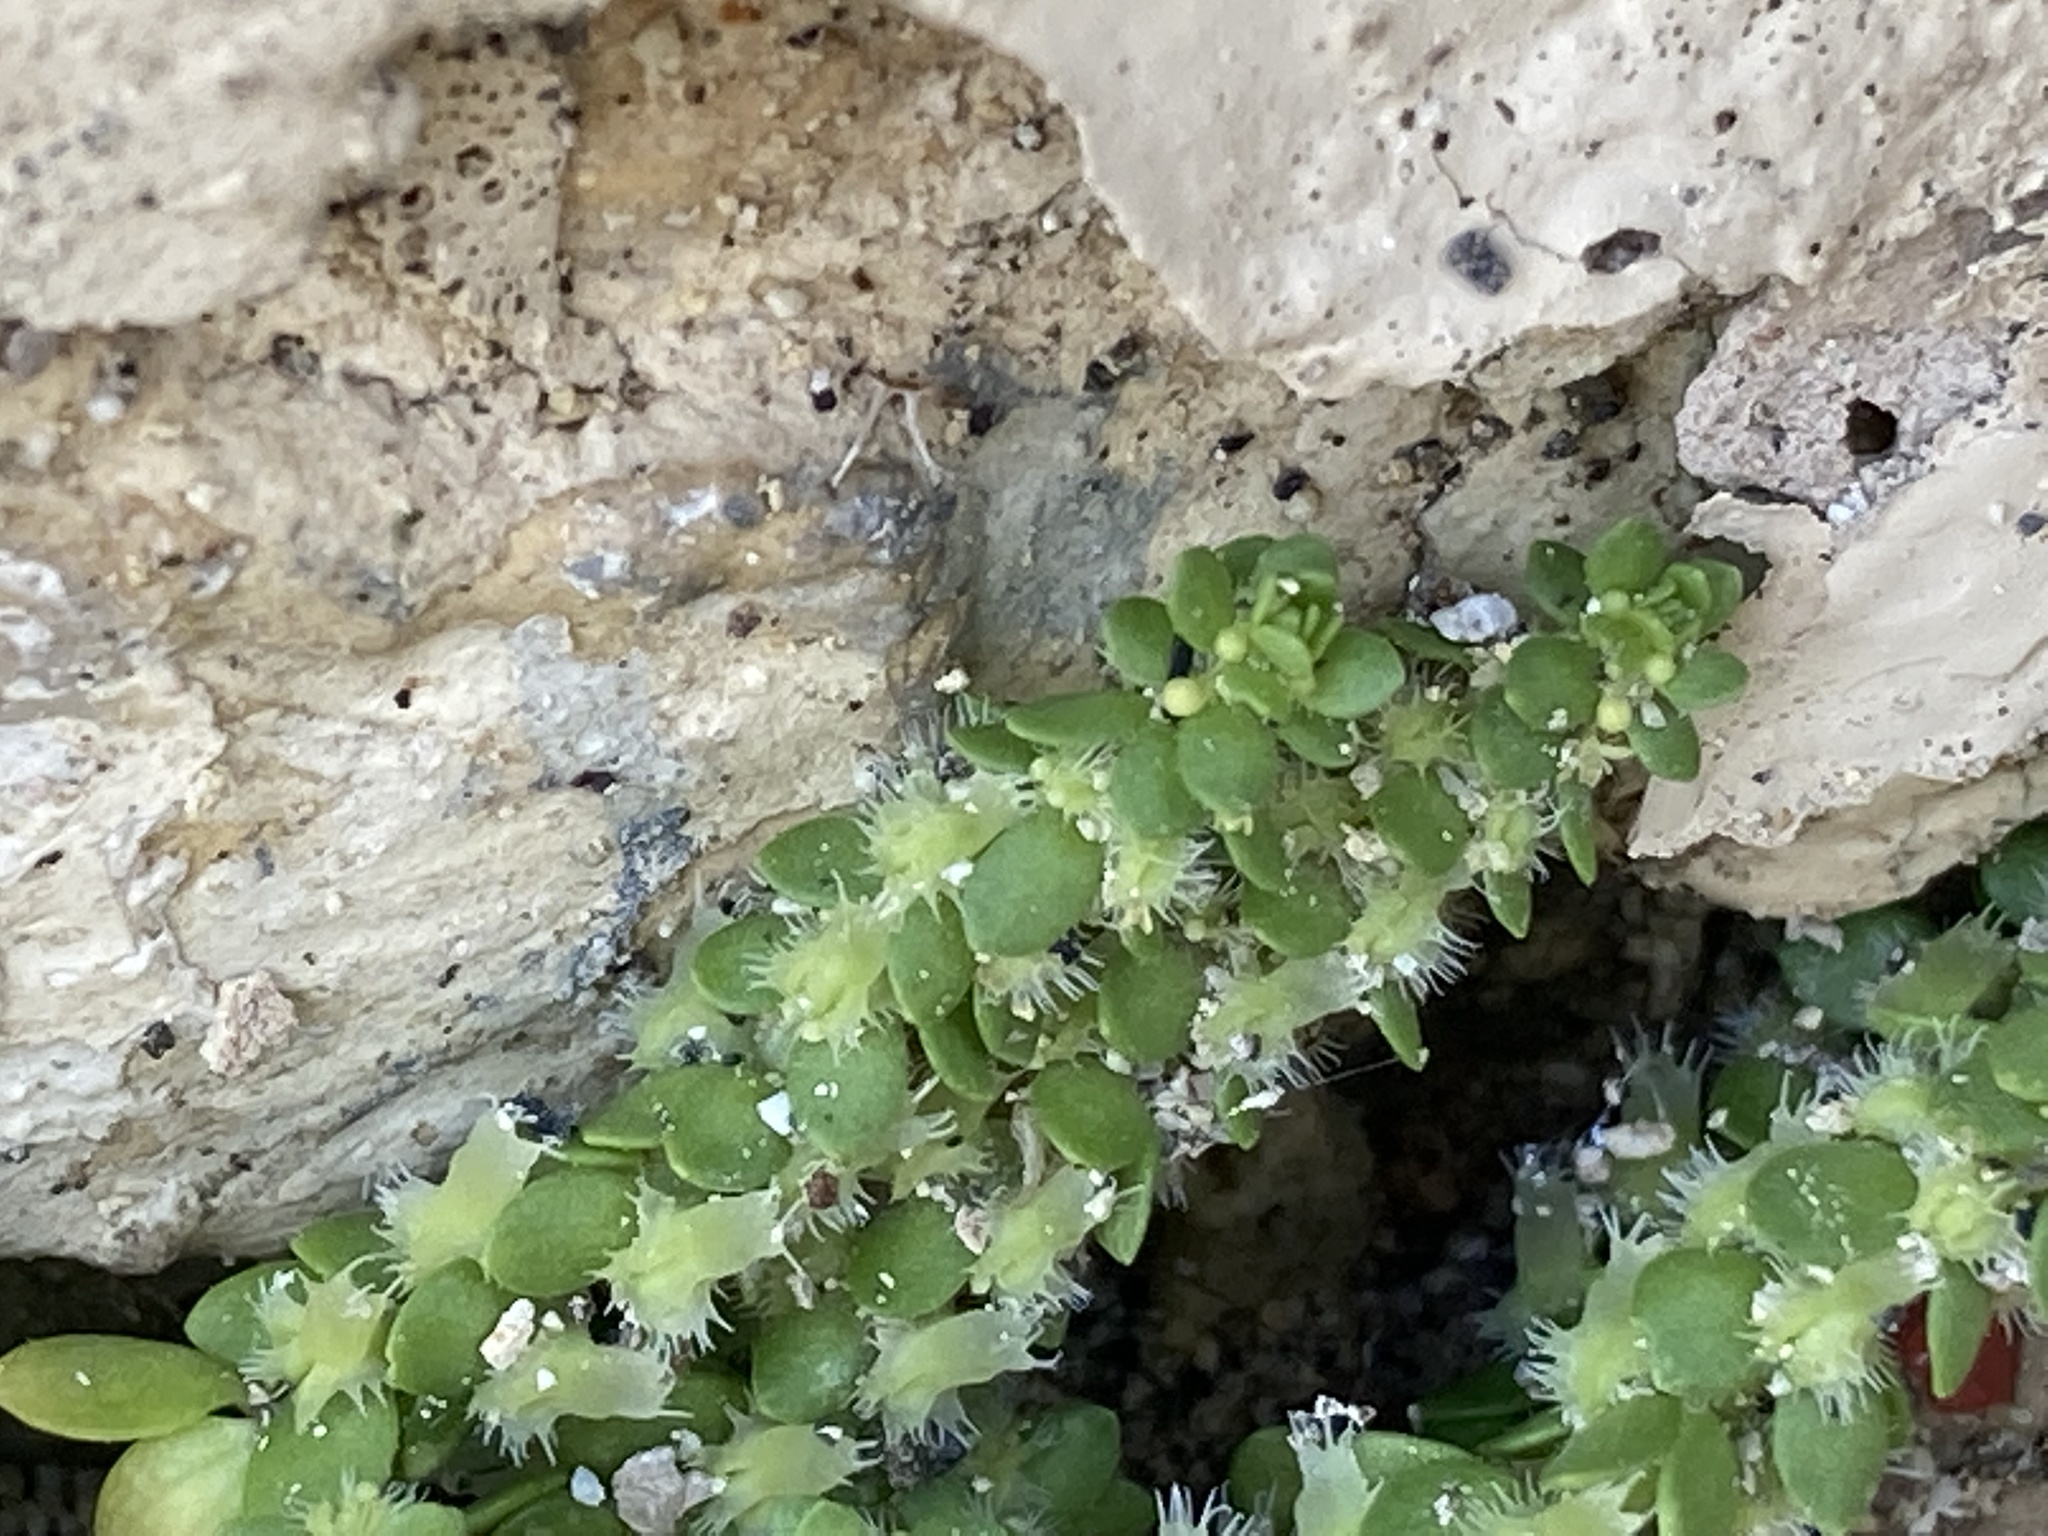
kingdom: Plantae
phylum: Tracheophyta
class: Magnoliopsida
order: Gentianales
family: Rubiaceae
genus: Valantia
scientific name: Valantia muralis
